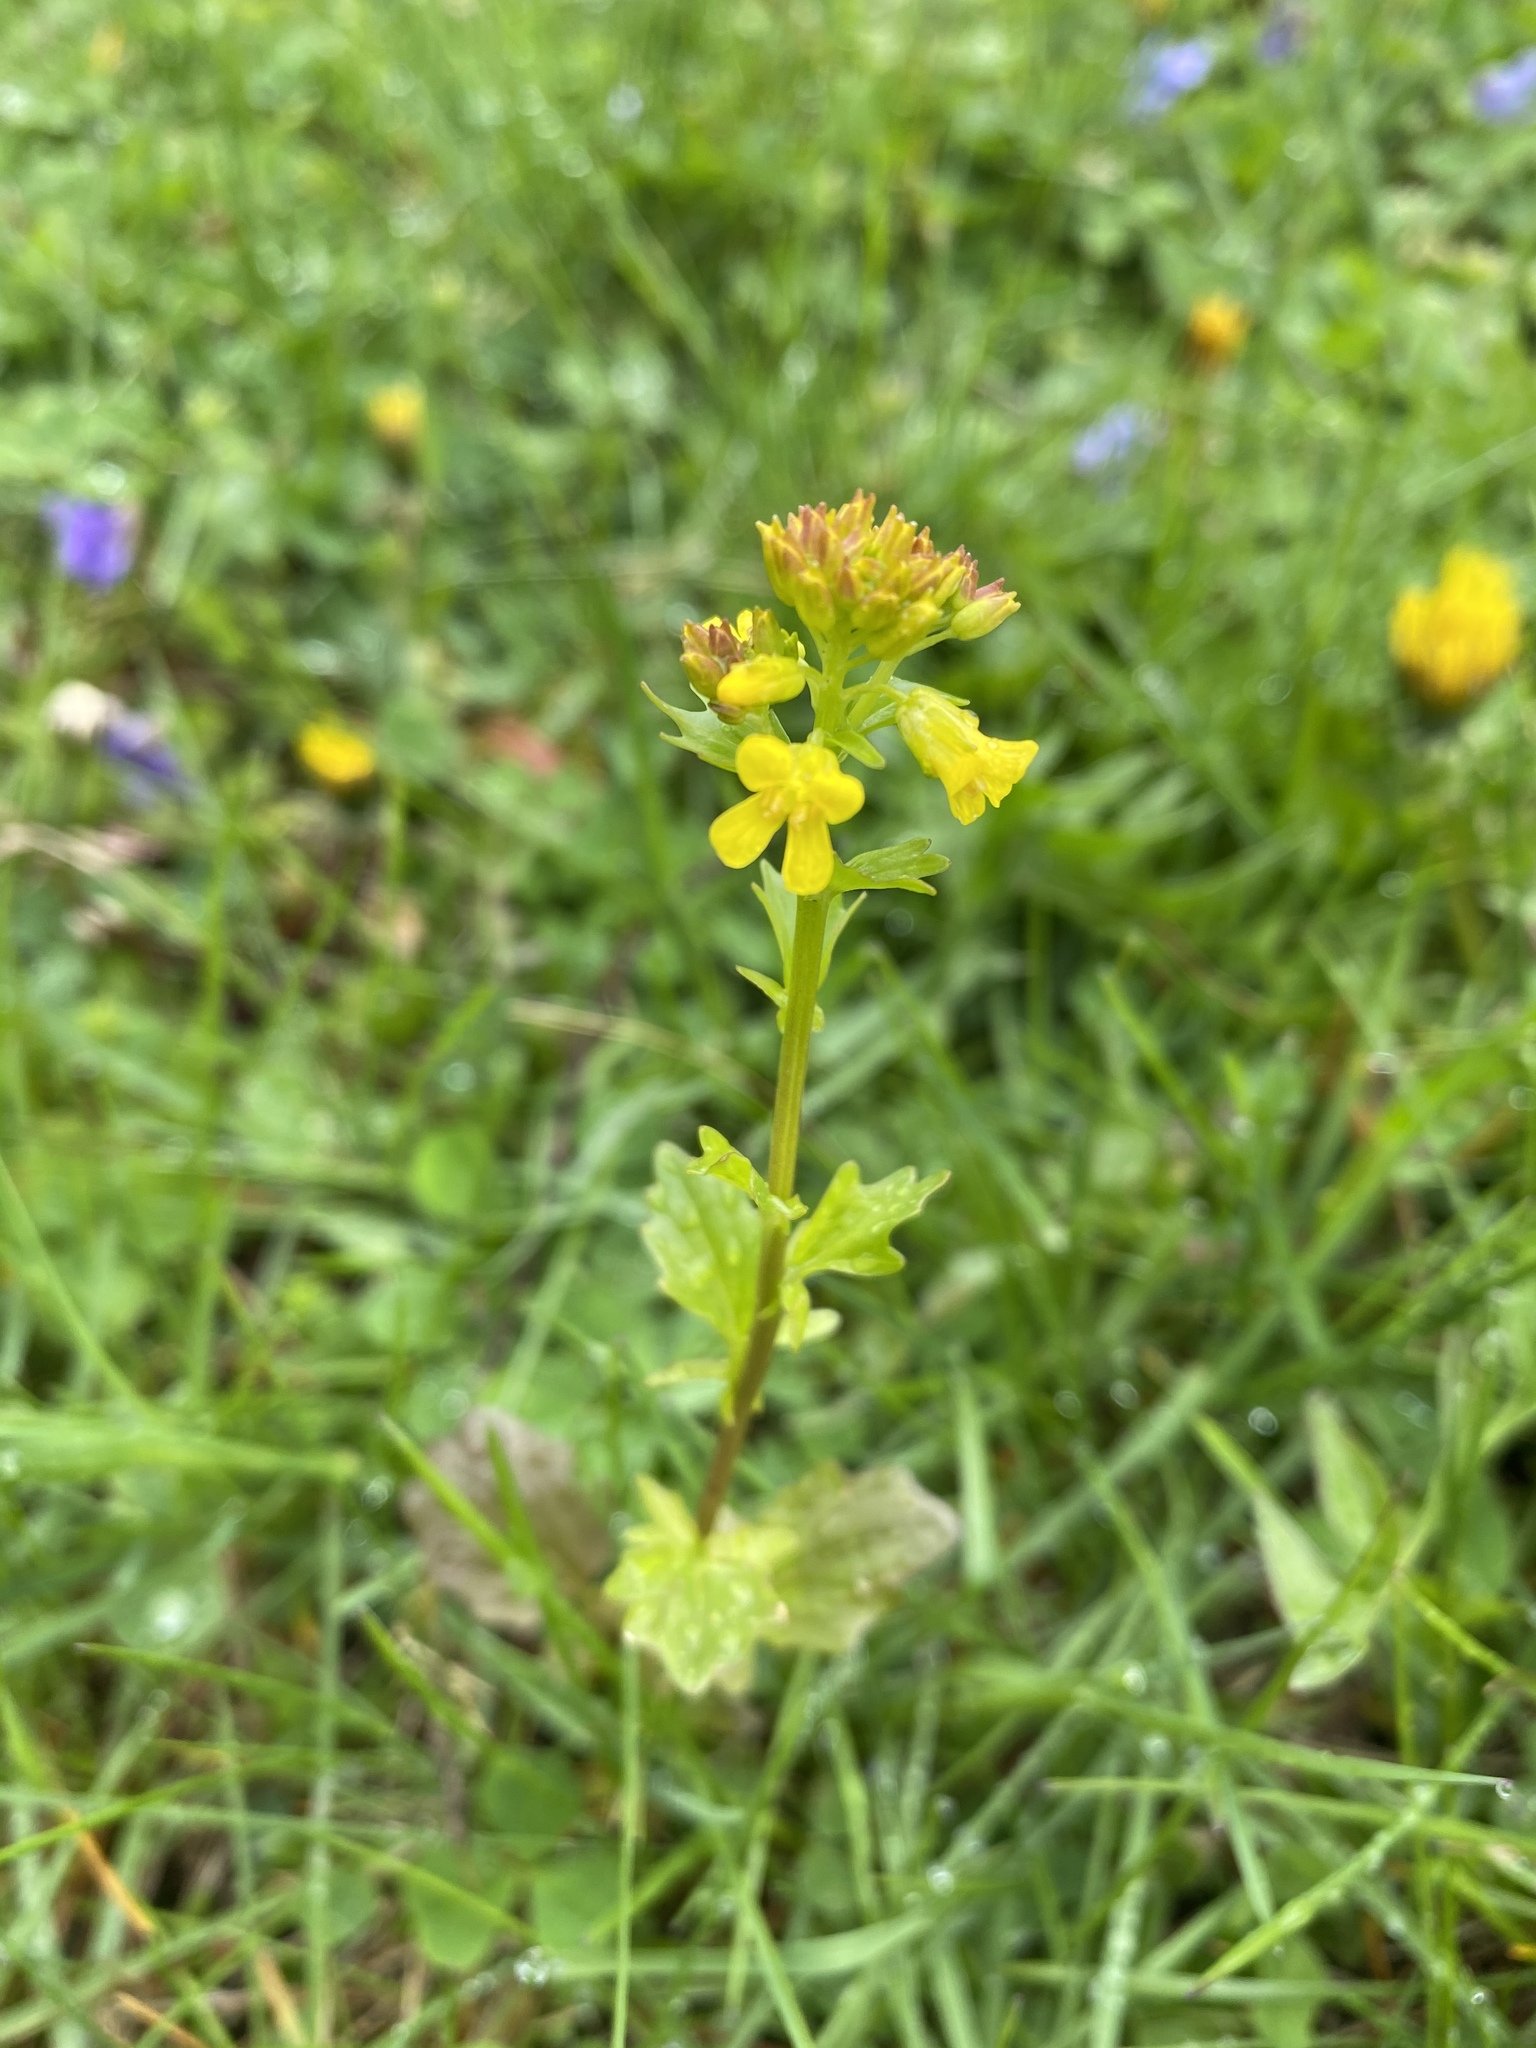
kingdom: Plantae
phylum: Tracheophyta
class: Magnoliopsida
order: Brassicales
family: Brassicaceae
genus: Barbarea
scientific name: Barbarea vulgaris
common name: Cressy-greens
